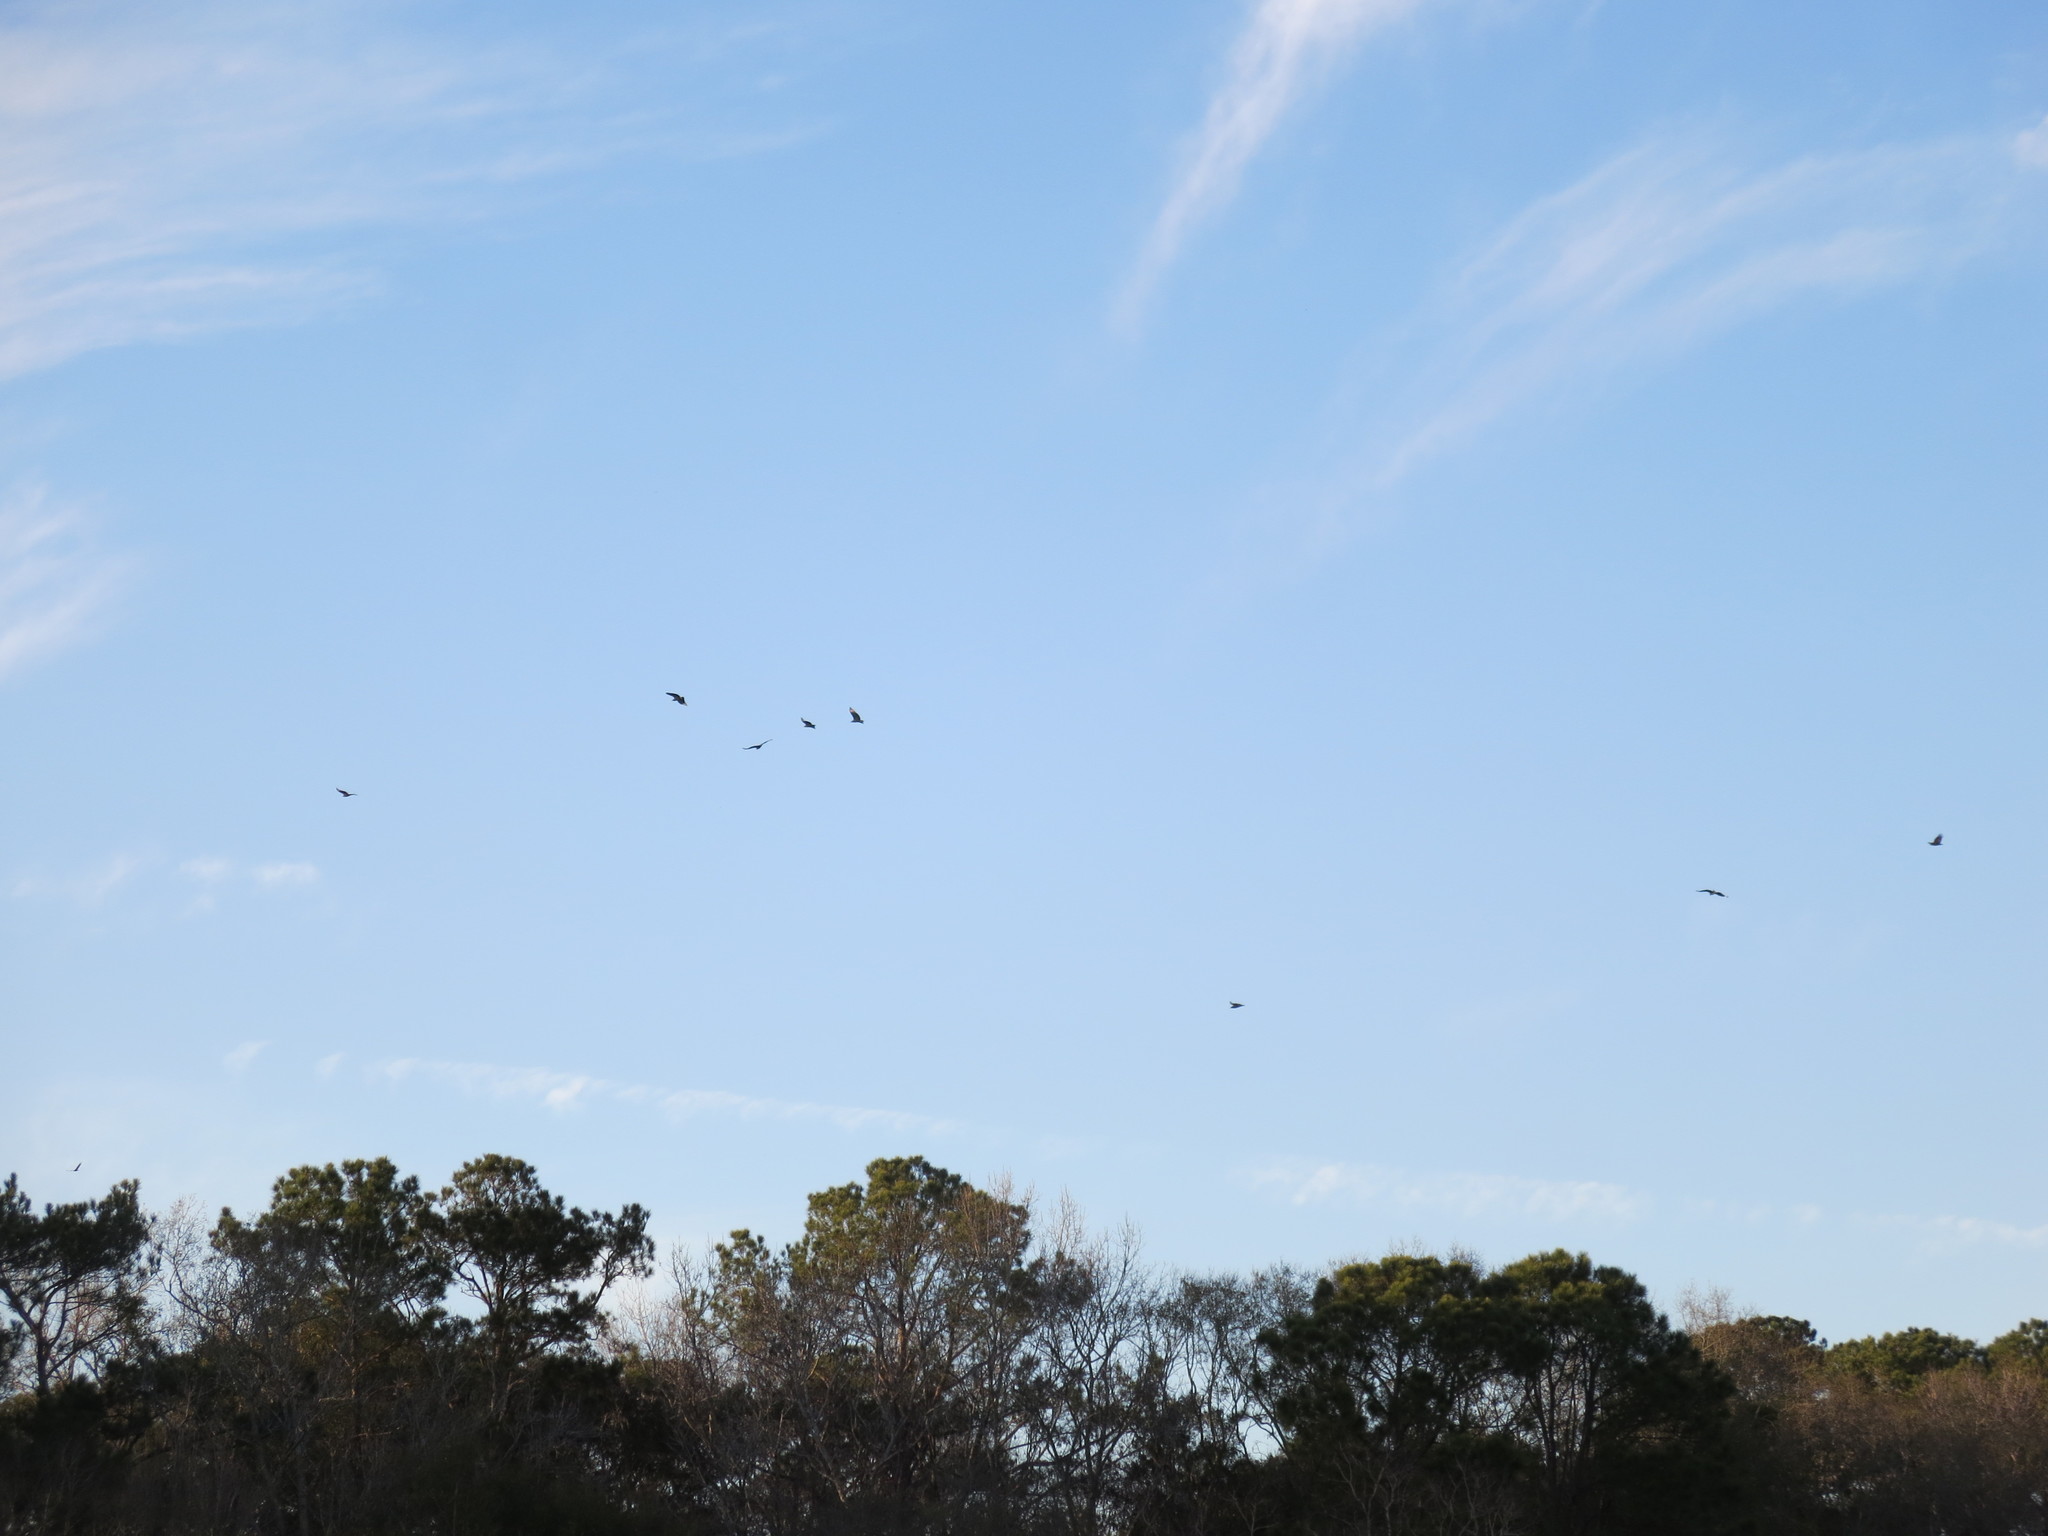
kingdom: Animalia
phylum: Chordata
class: Aves
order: Accipitriformes
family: Cathartidae
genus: Coragyps
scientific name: Coragyps atratus
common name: Black vulture
